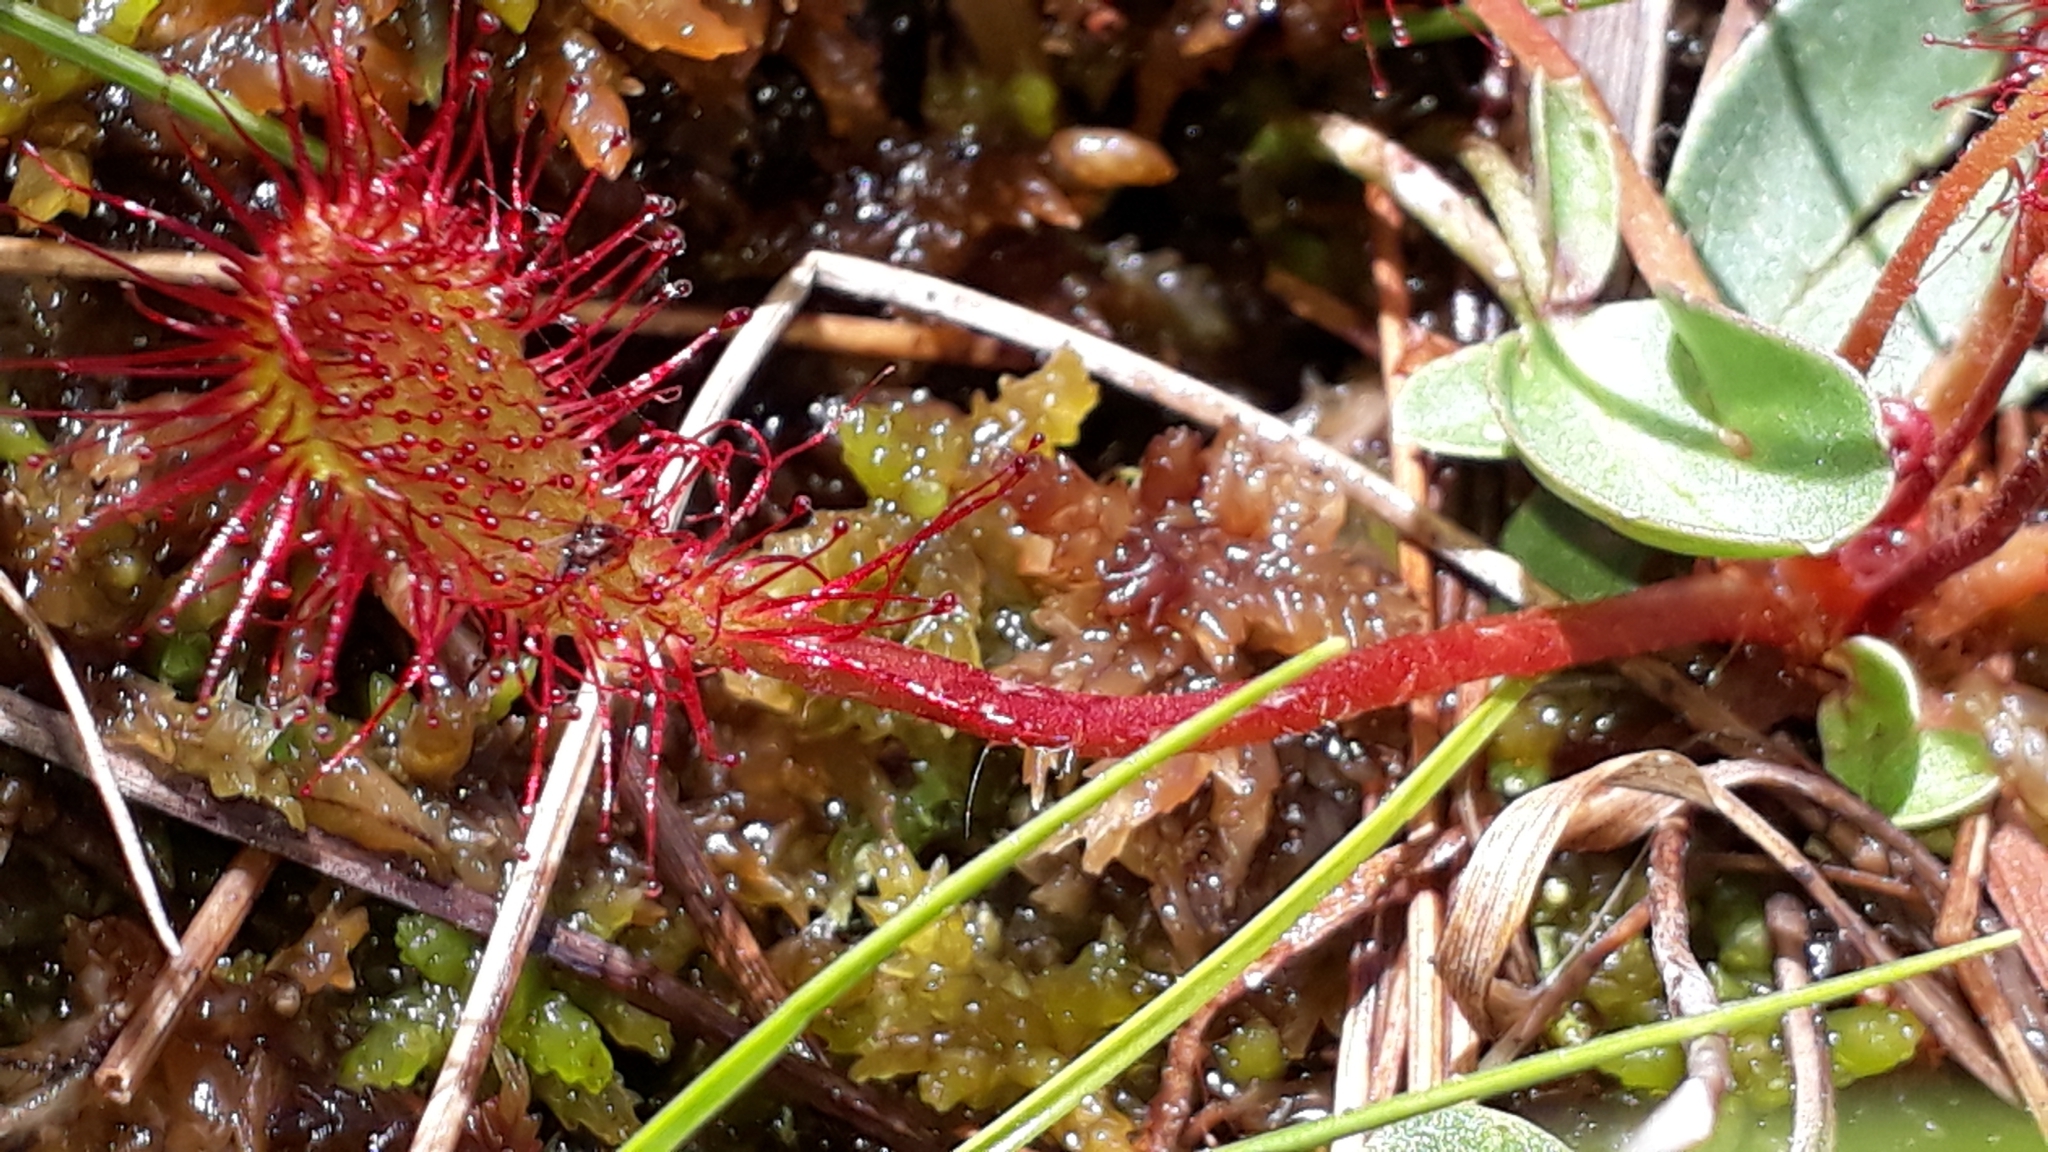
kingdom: Plantae
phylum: Tracheophyta
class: Magnoliopsida
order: Caryophyllales
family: Droseraceae
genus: Drosera
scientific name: Drosera obovata
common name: Ivan's paddle
